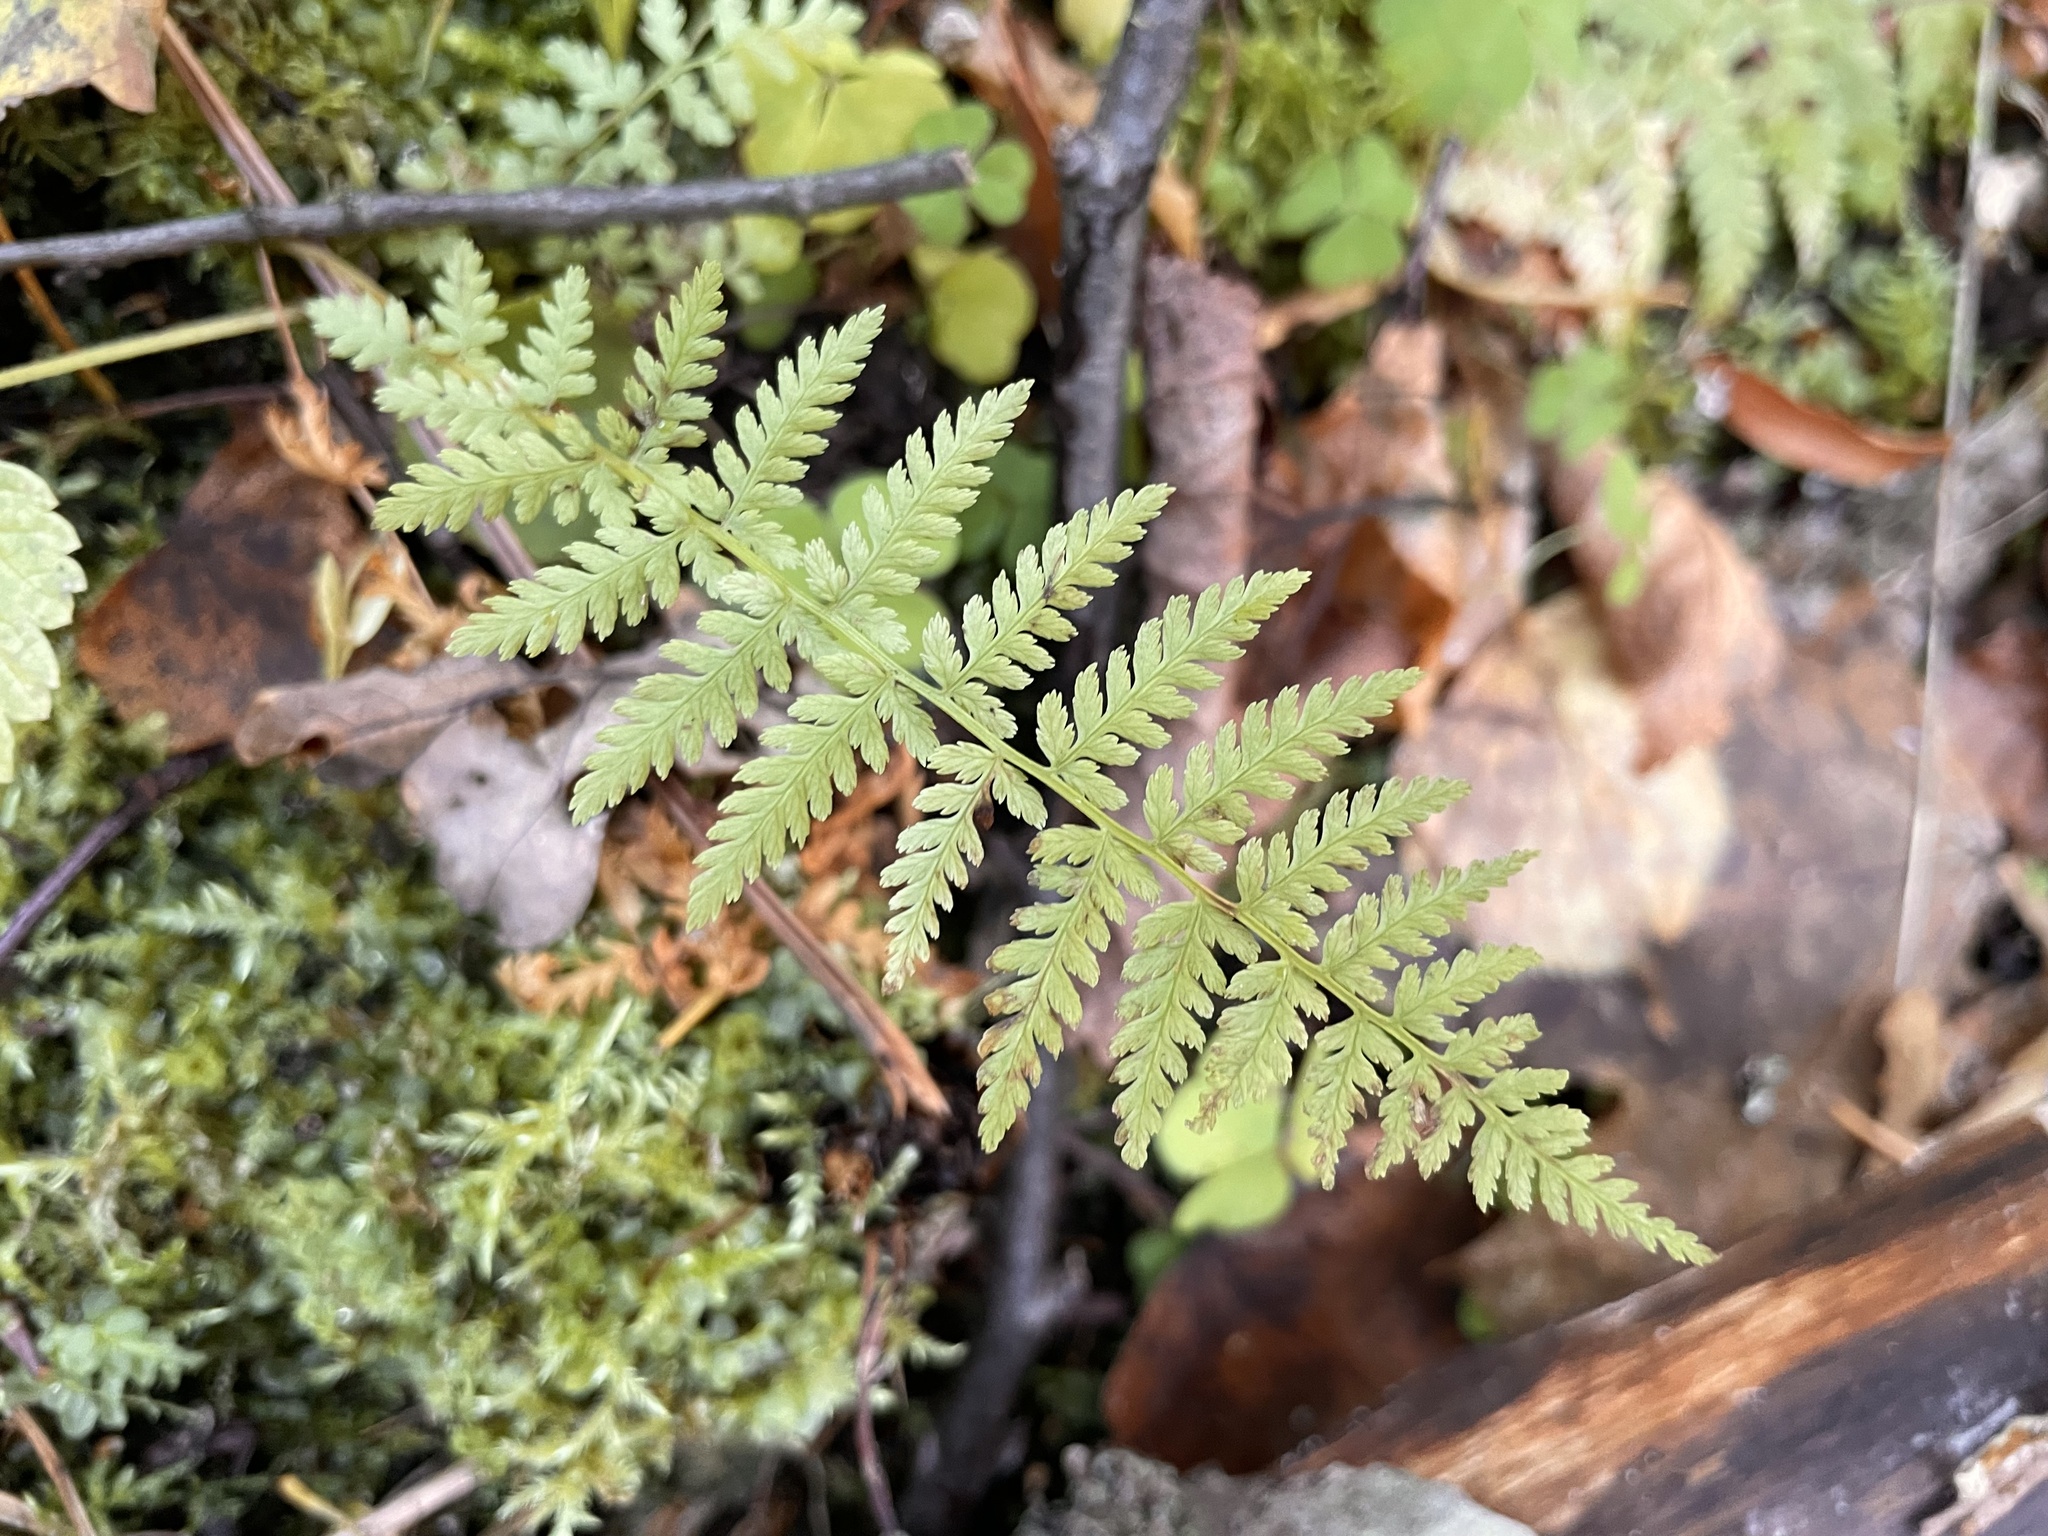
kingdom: Plantae
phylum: Tracheophyta
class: Polypodiopsida
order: Polypodiales
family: Athyriaceae
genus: Athyrium
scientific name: Athyrium filix-femina
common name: Lady fern
